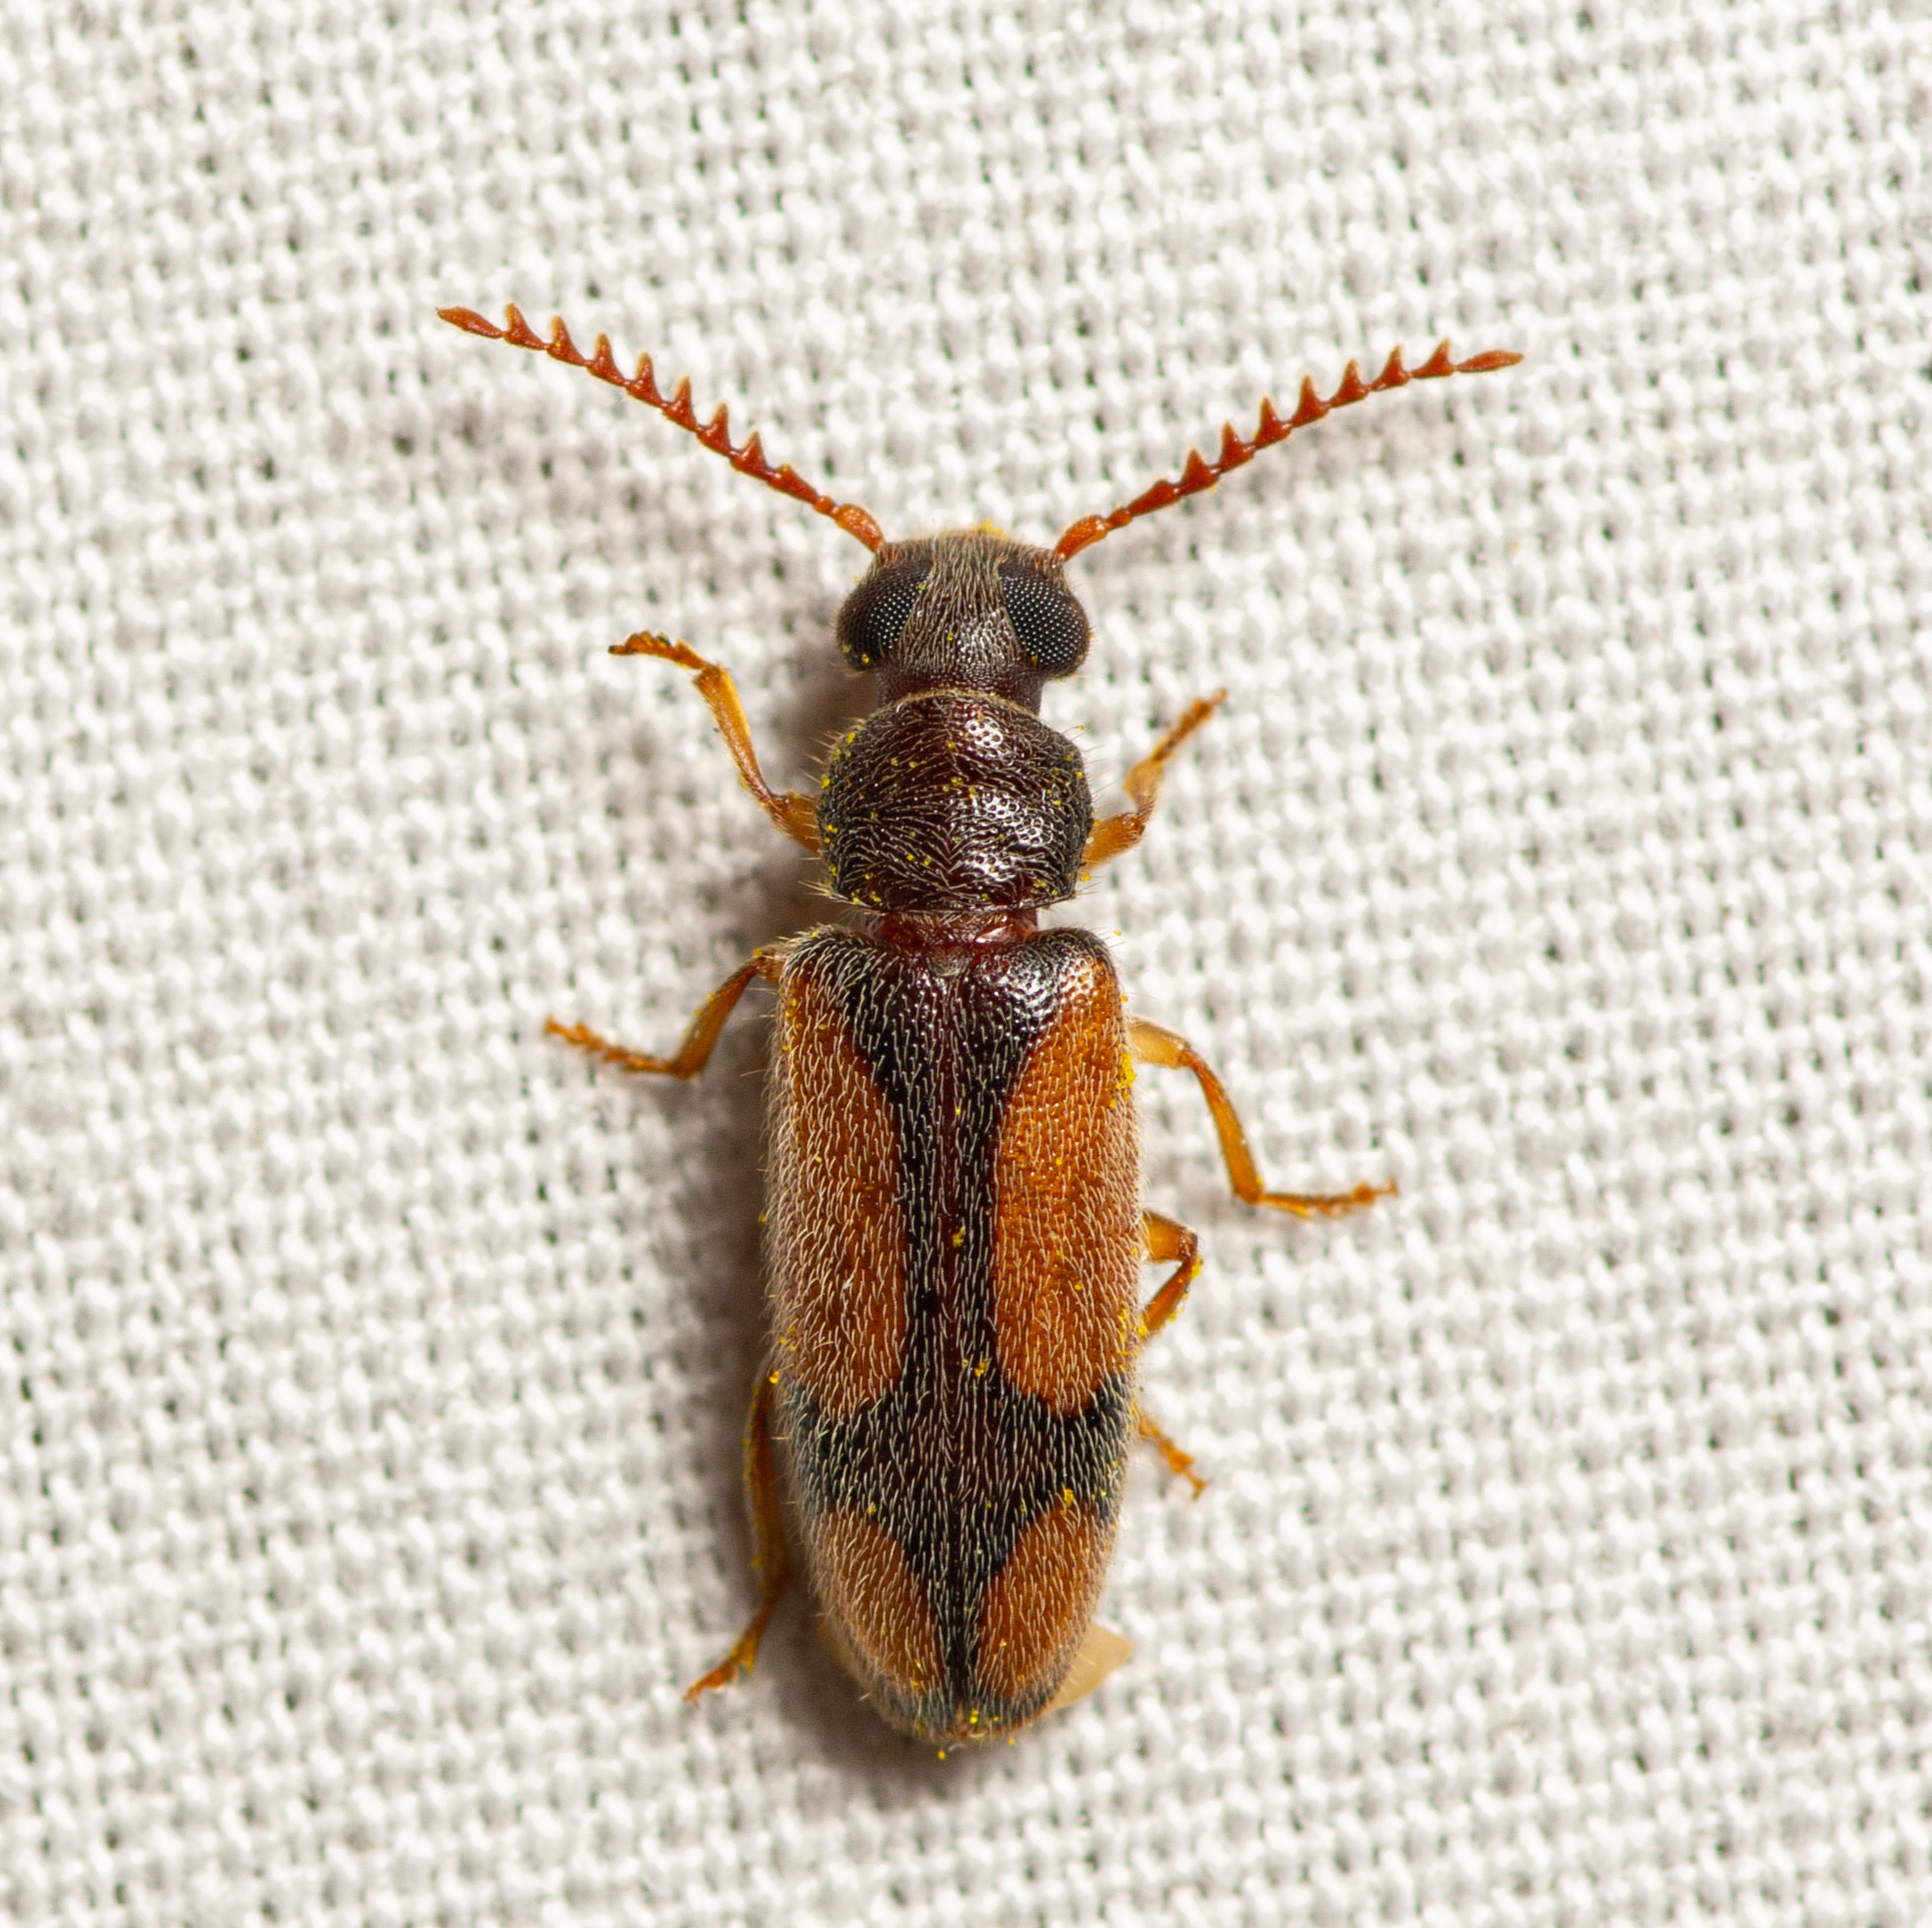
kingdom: Animalia
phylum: Arthropoda
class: Insecta
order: Coleoptera
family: Oedemeridae
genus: Polypria
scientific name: Polypria
